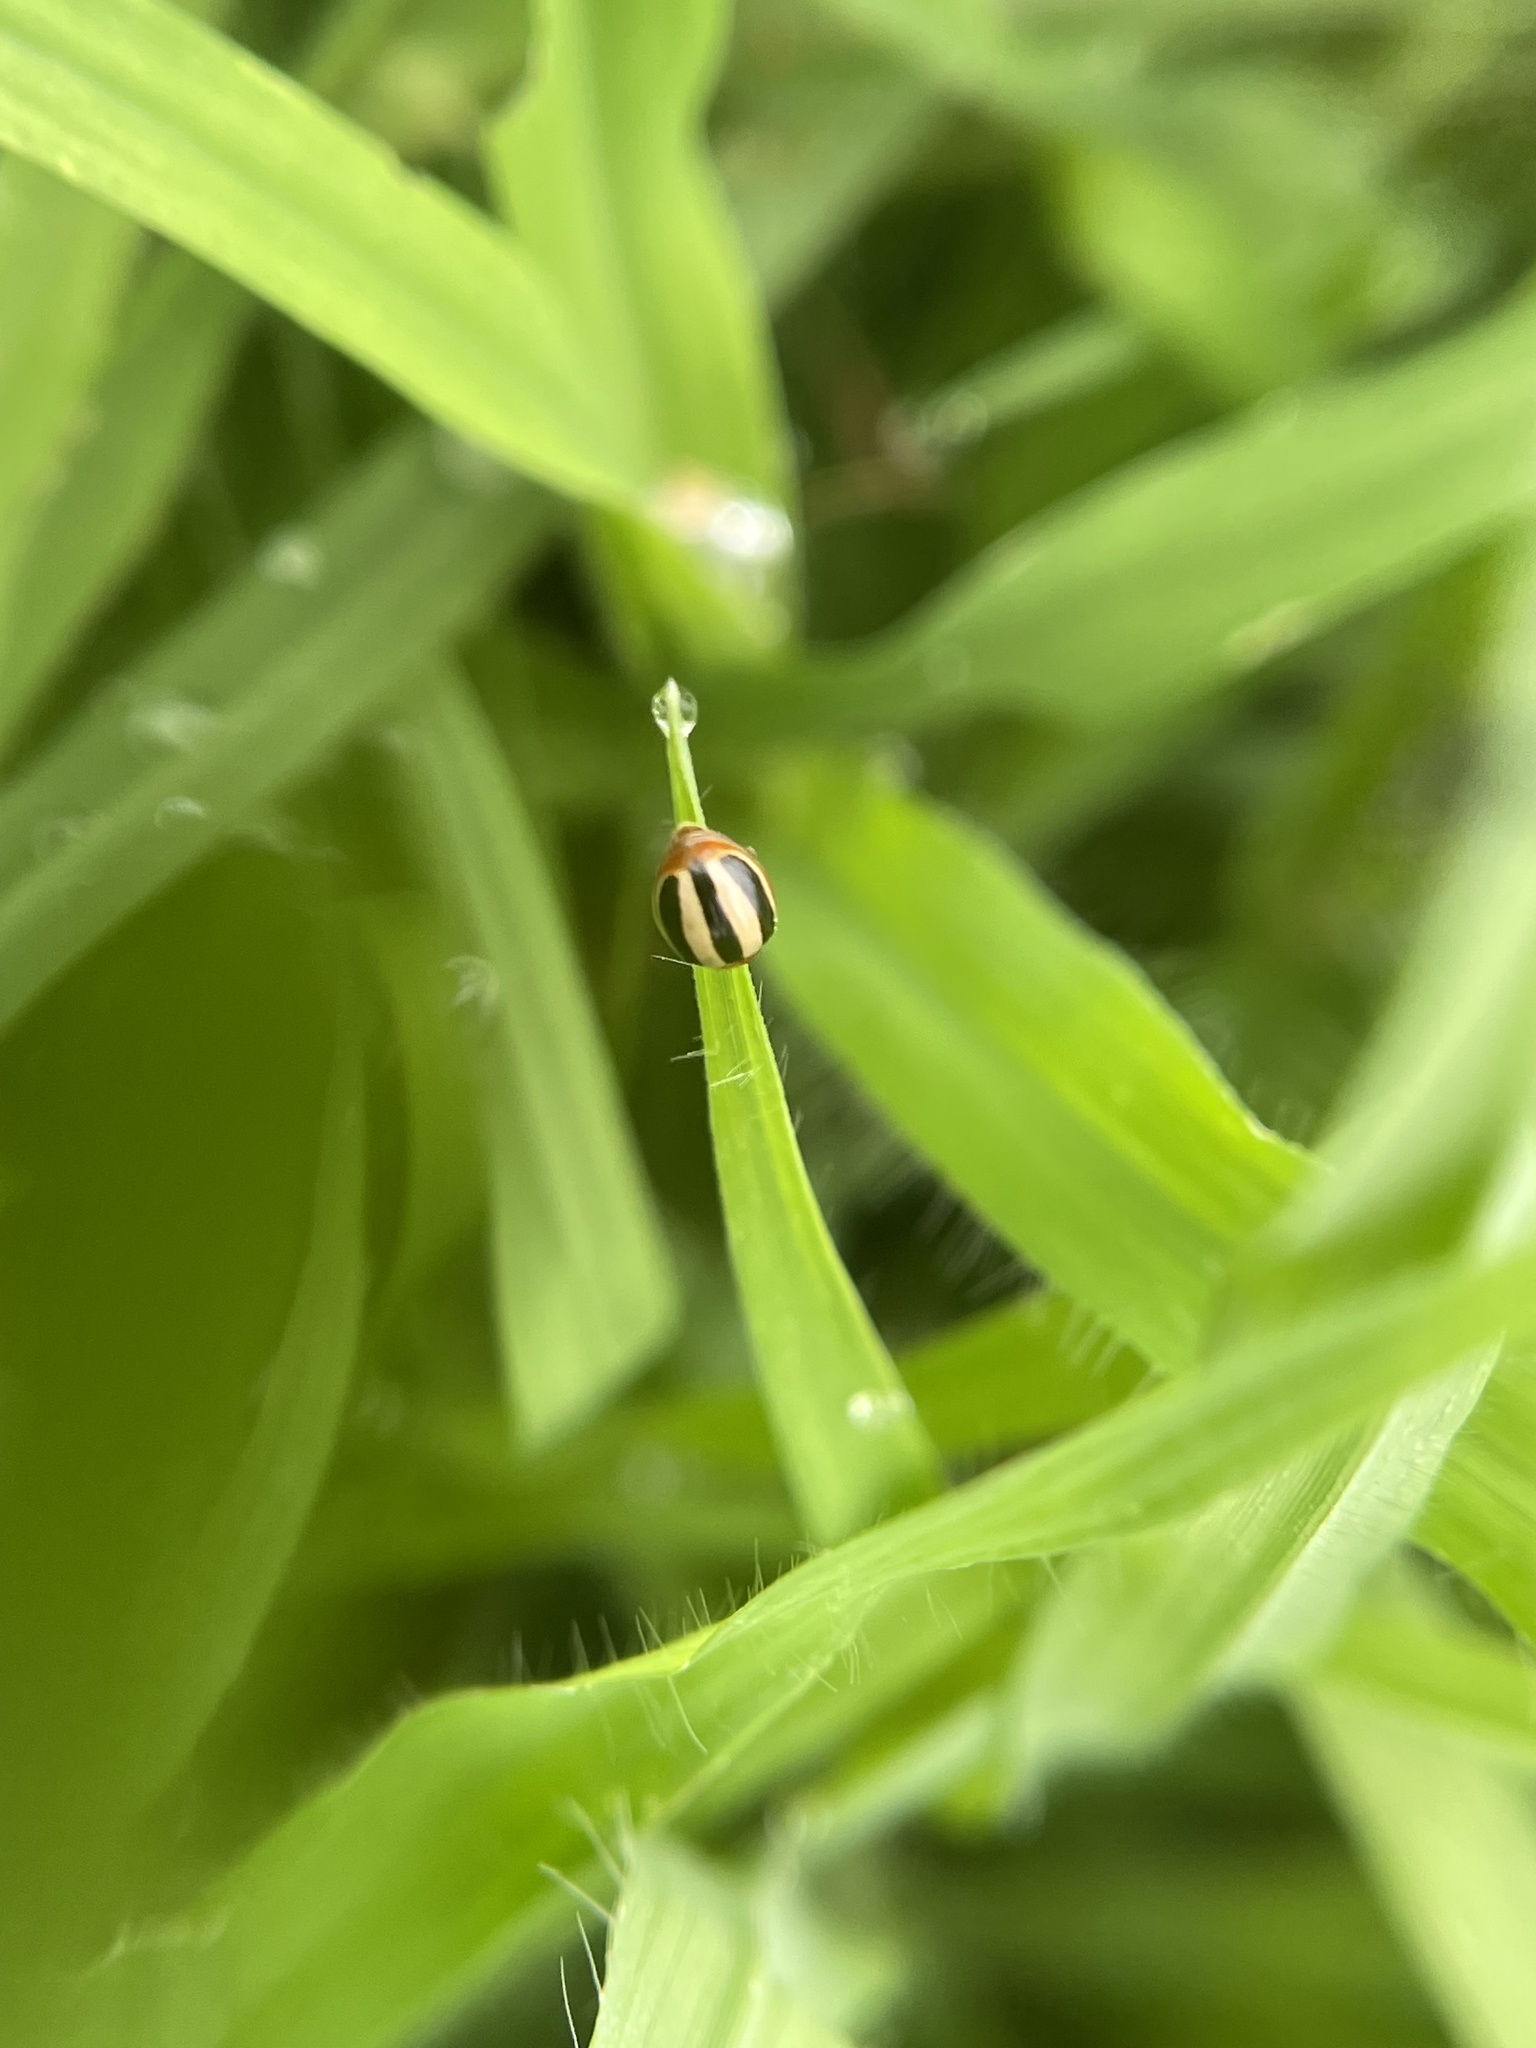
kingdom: Animalia
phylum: Arthropoda
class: Insecta
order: Coleoptera
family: Coccinellidae
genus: Brumoides
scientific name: Brumoides suturalis
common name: Threestriped lady beetle
